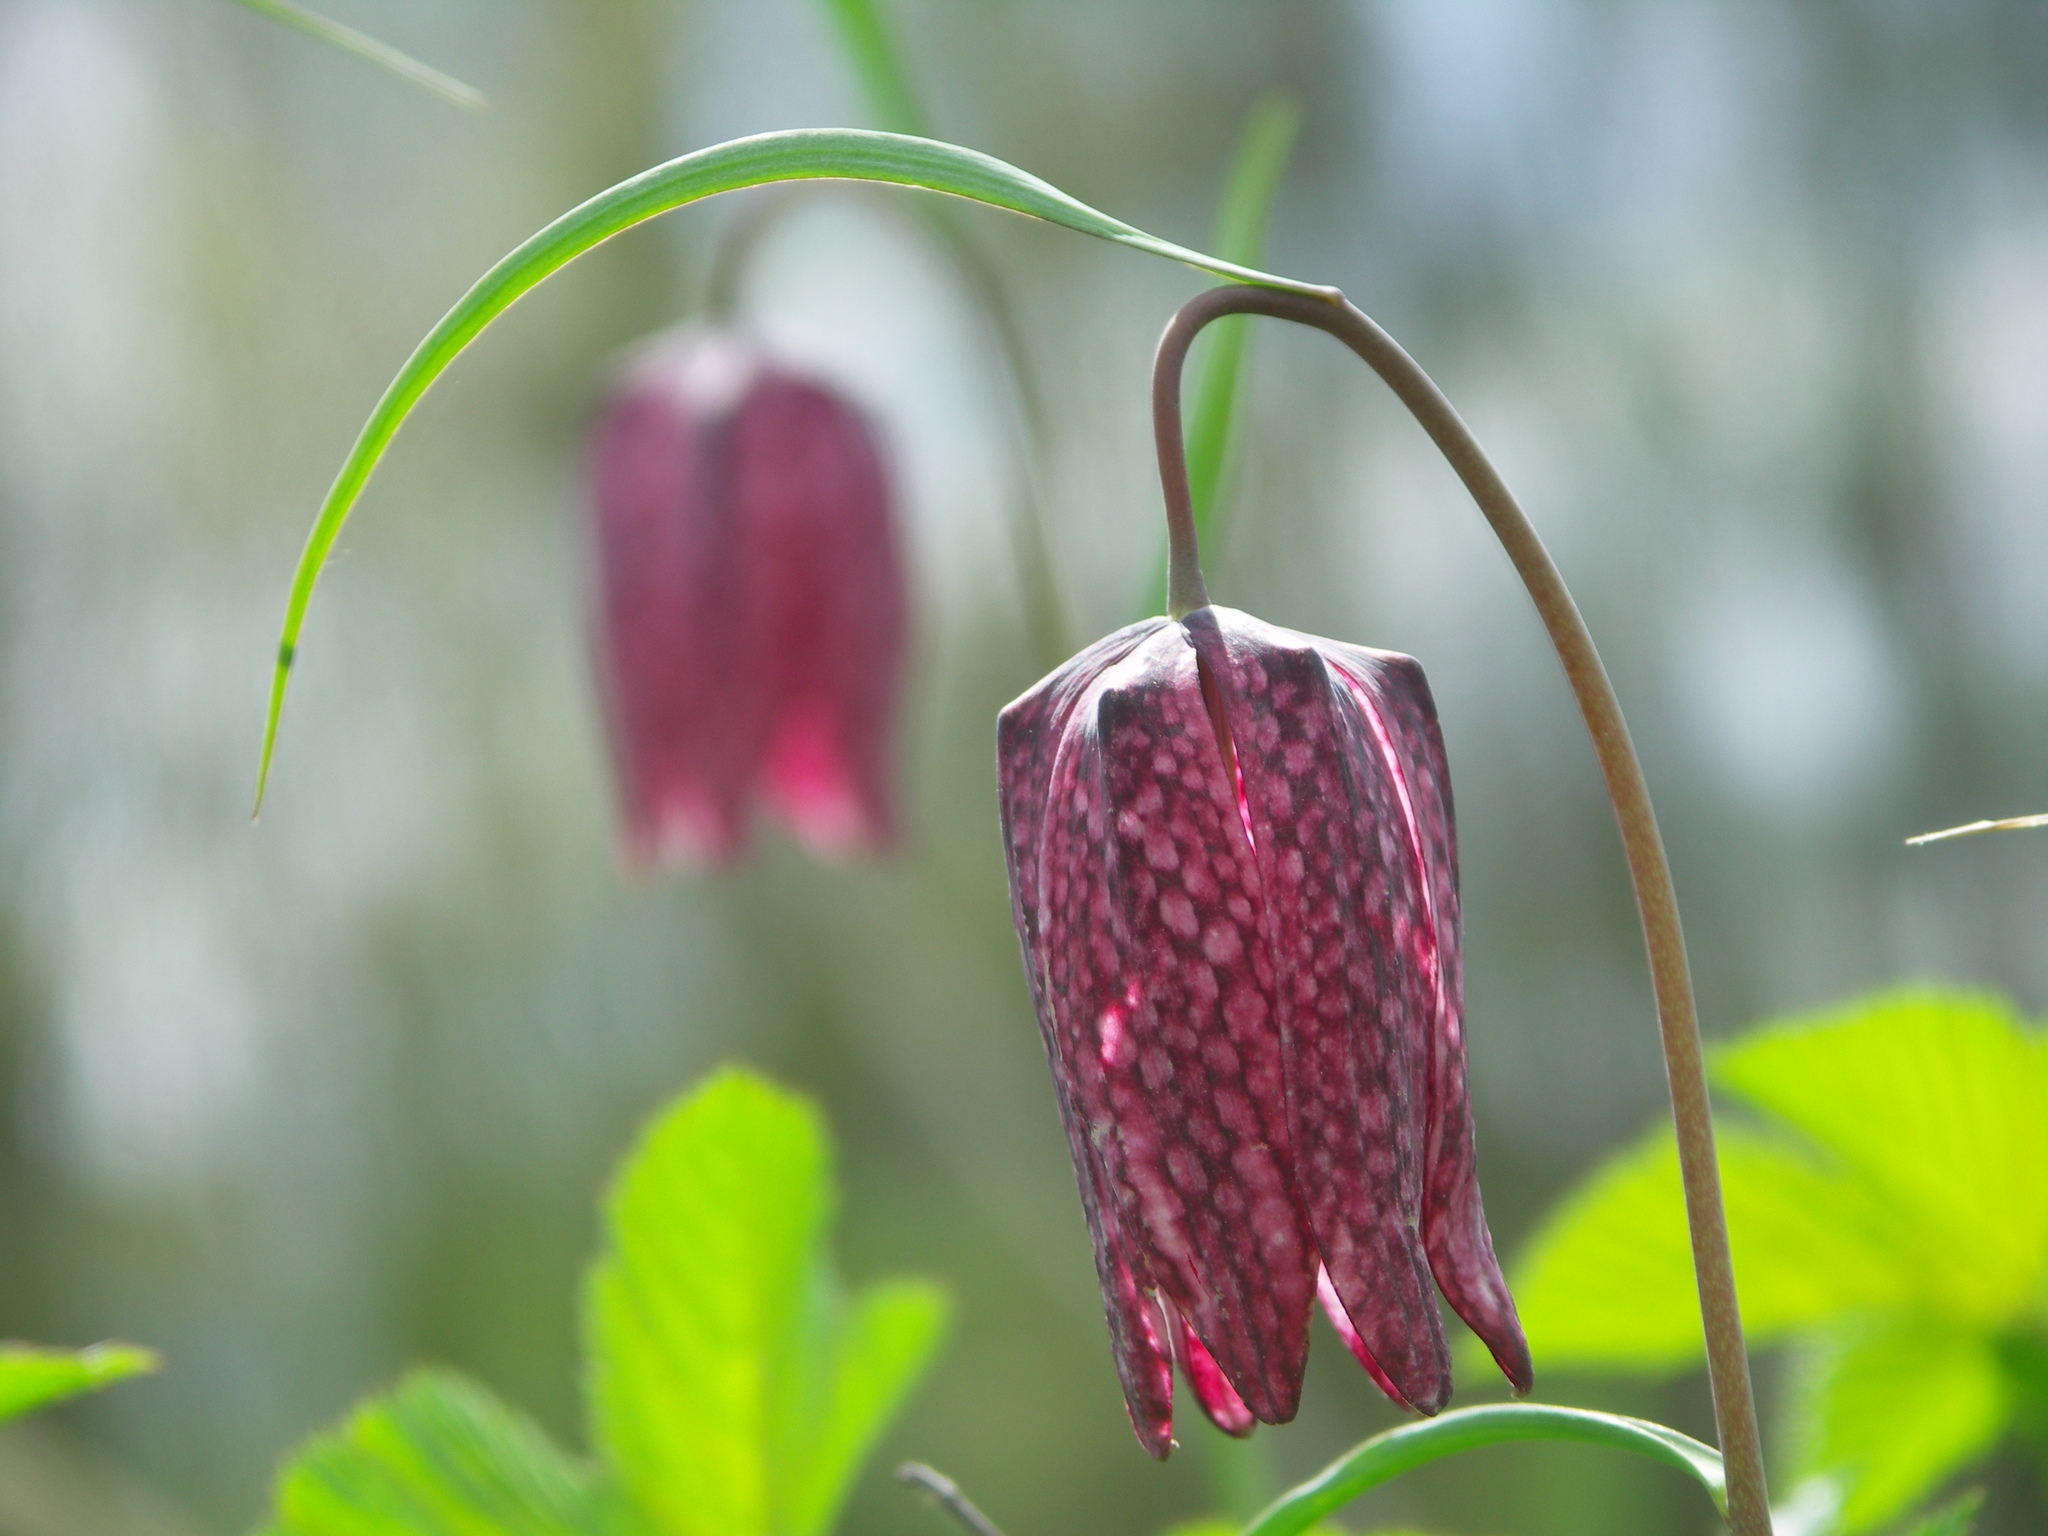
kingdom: Plantae
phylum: Tracheophyta
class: Liliopsida
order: Liliales
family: Liliaceae
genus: Fritillaria
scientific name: Fritillaria meleagris
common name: Fritillary
